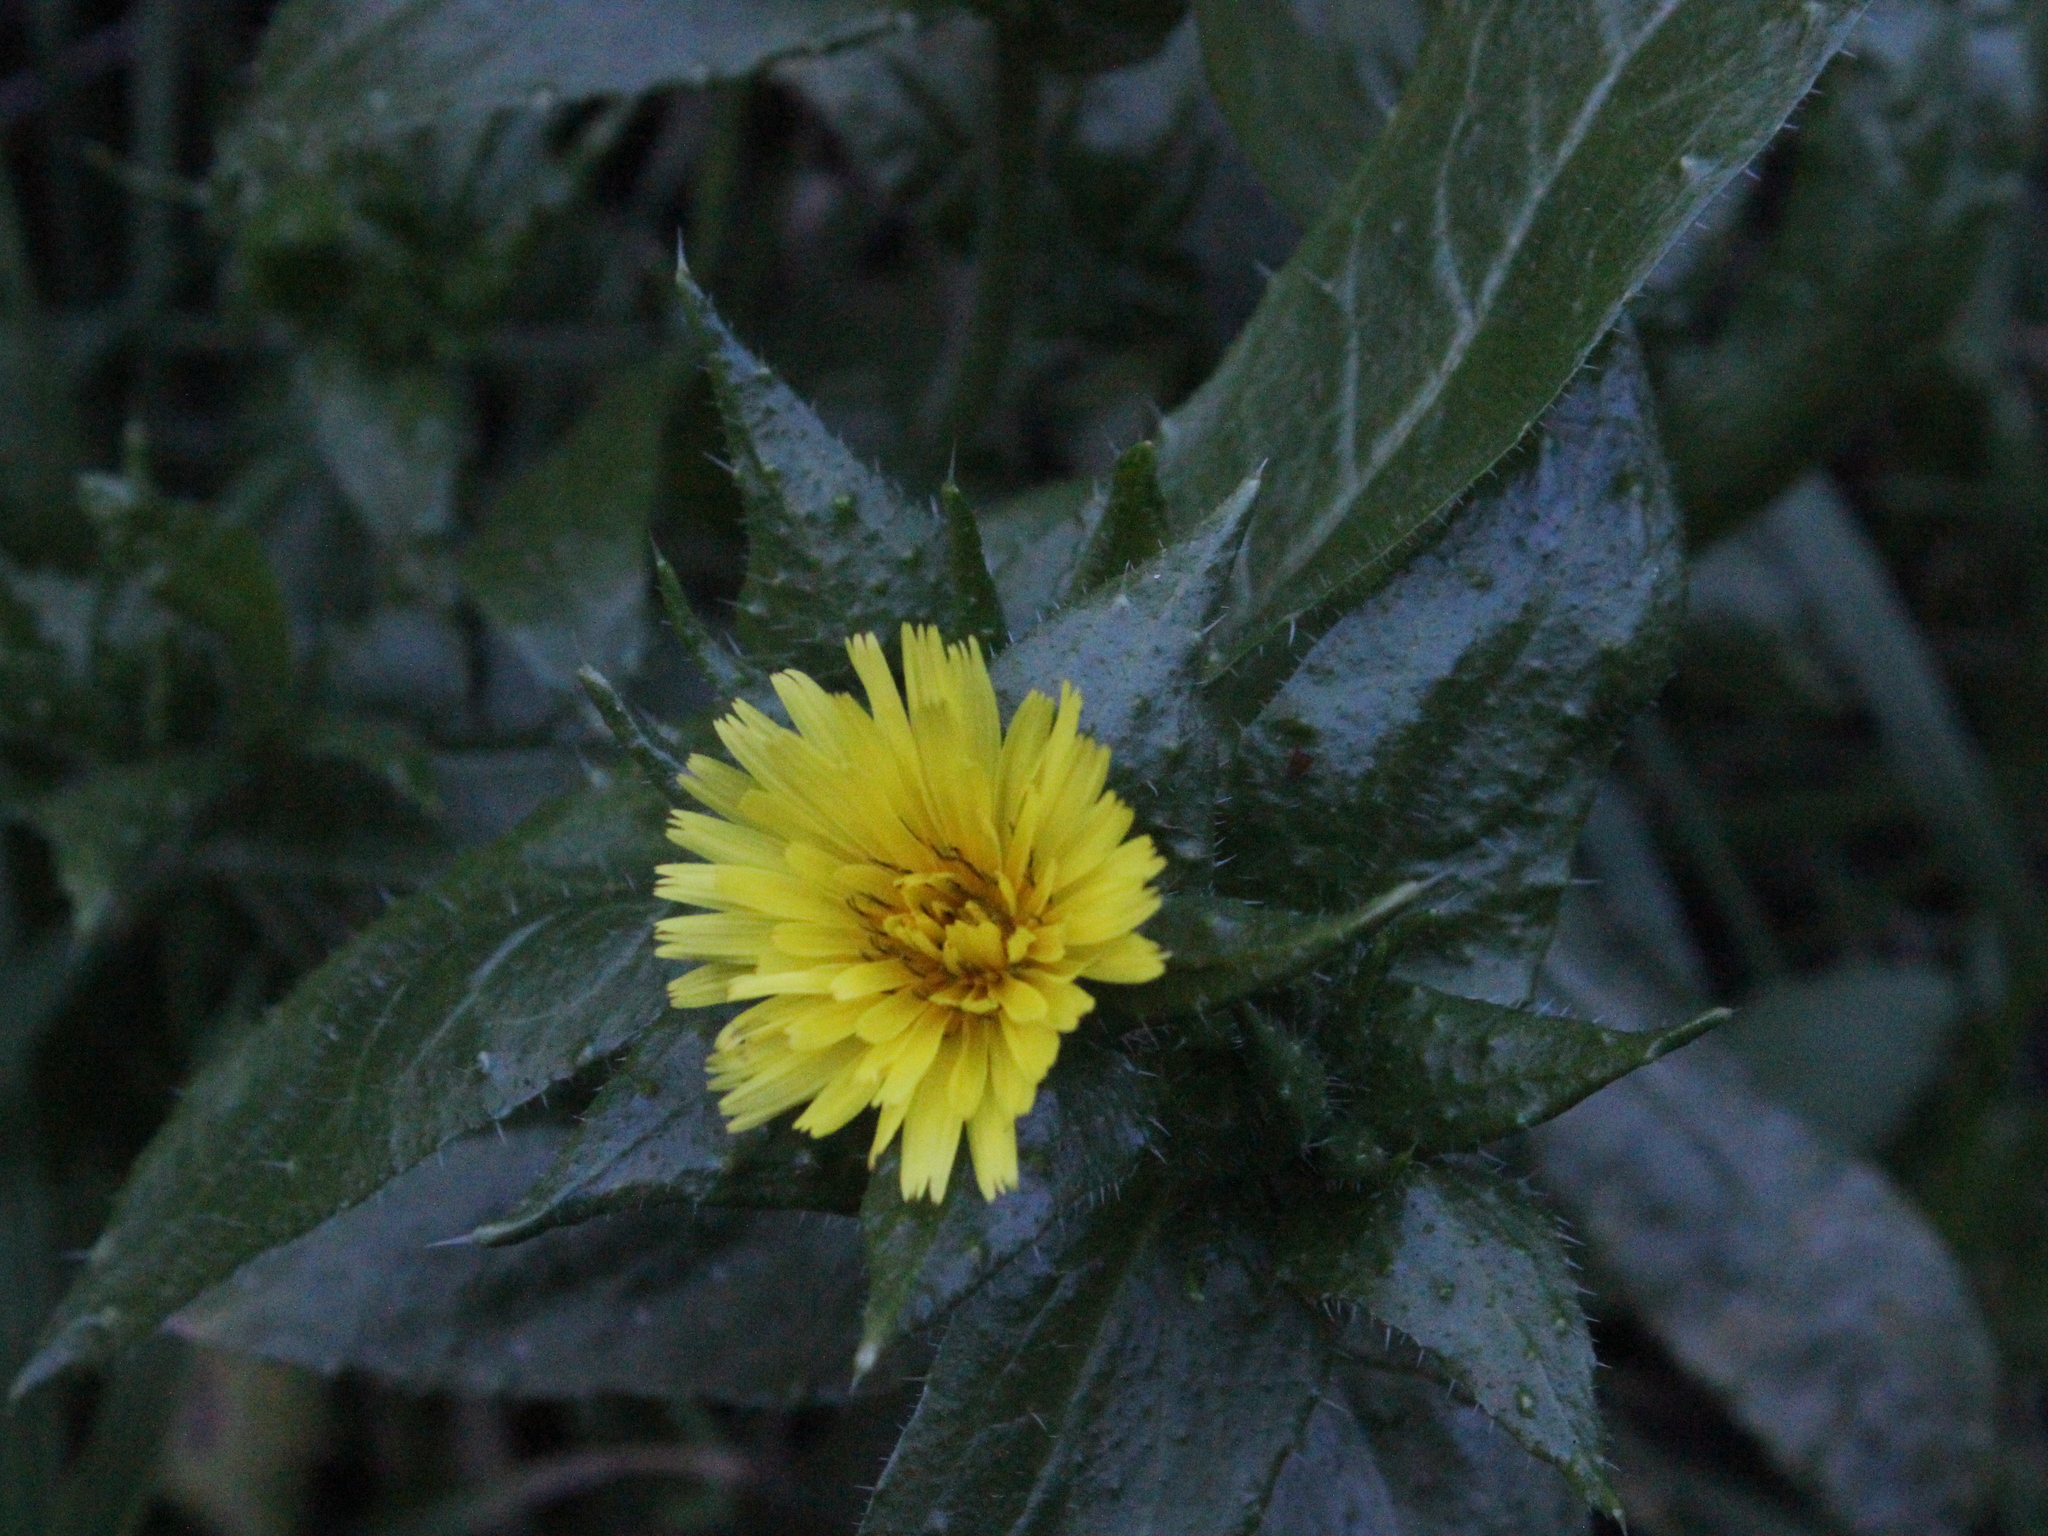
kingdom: Plantae
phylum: Tracheophyta
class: Magnoliopsida
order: Asterales
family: Asteraceae
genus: Helminthotheca
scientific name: Helminthotheca echioides
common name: Ox-tongue
